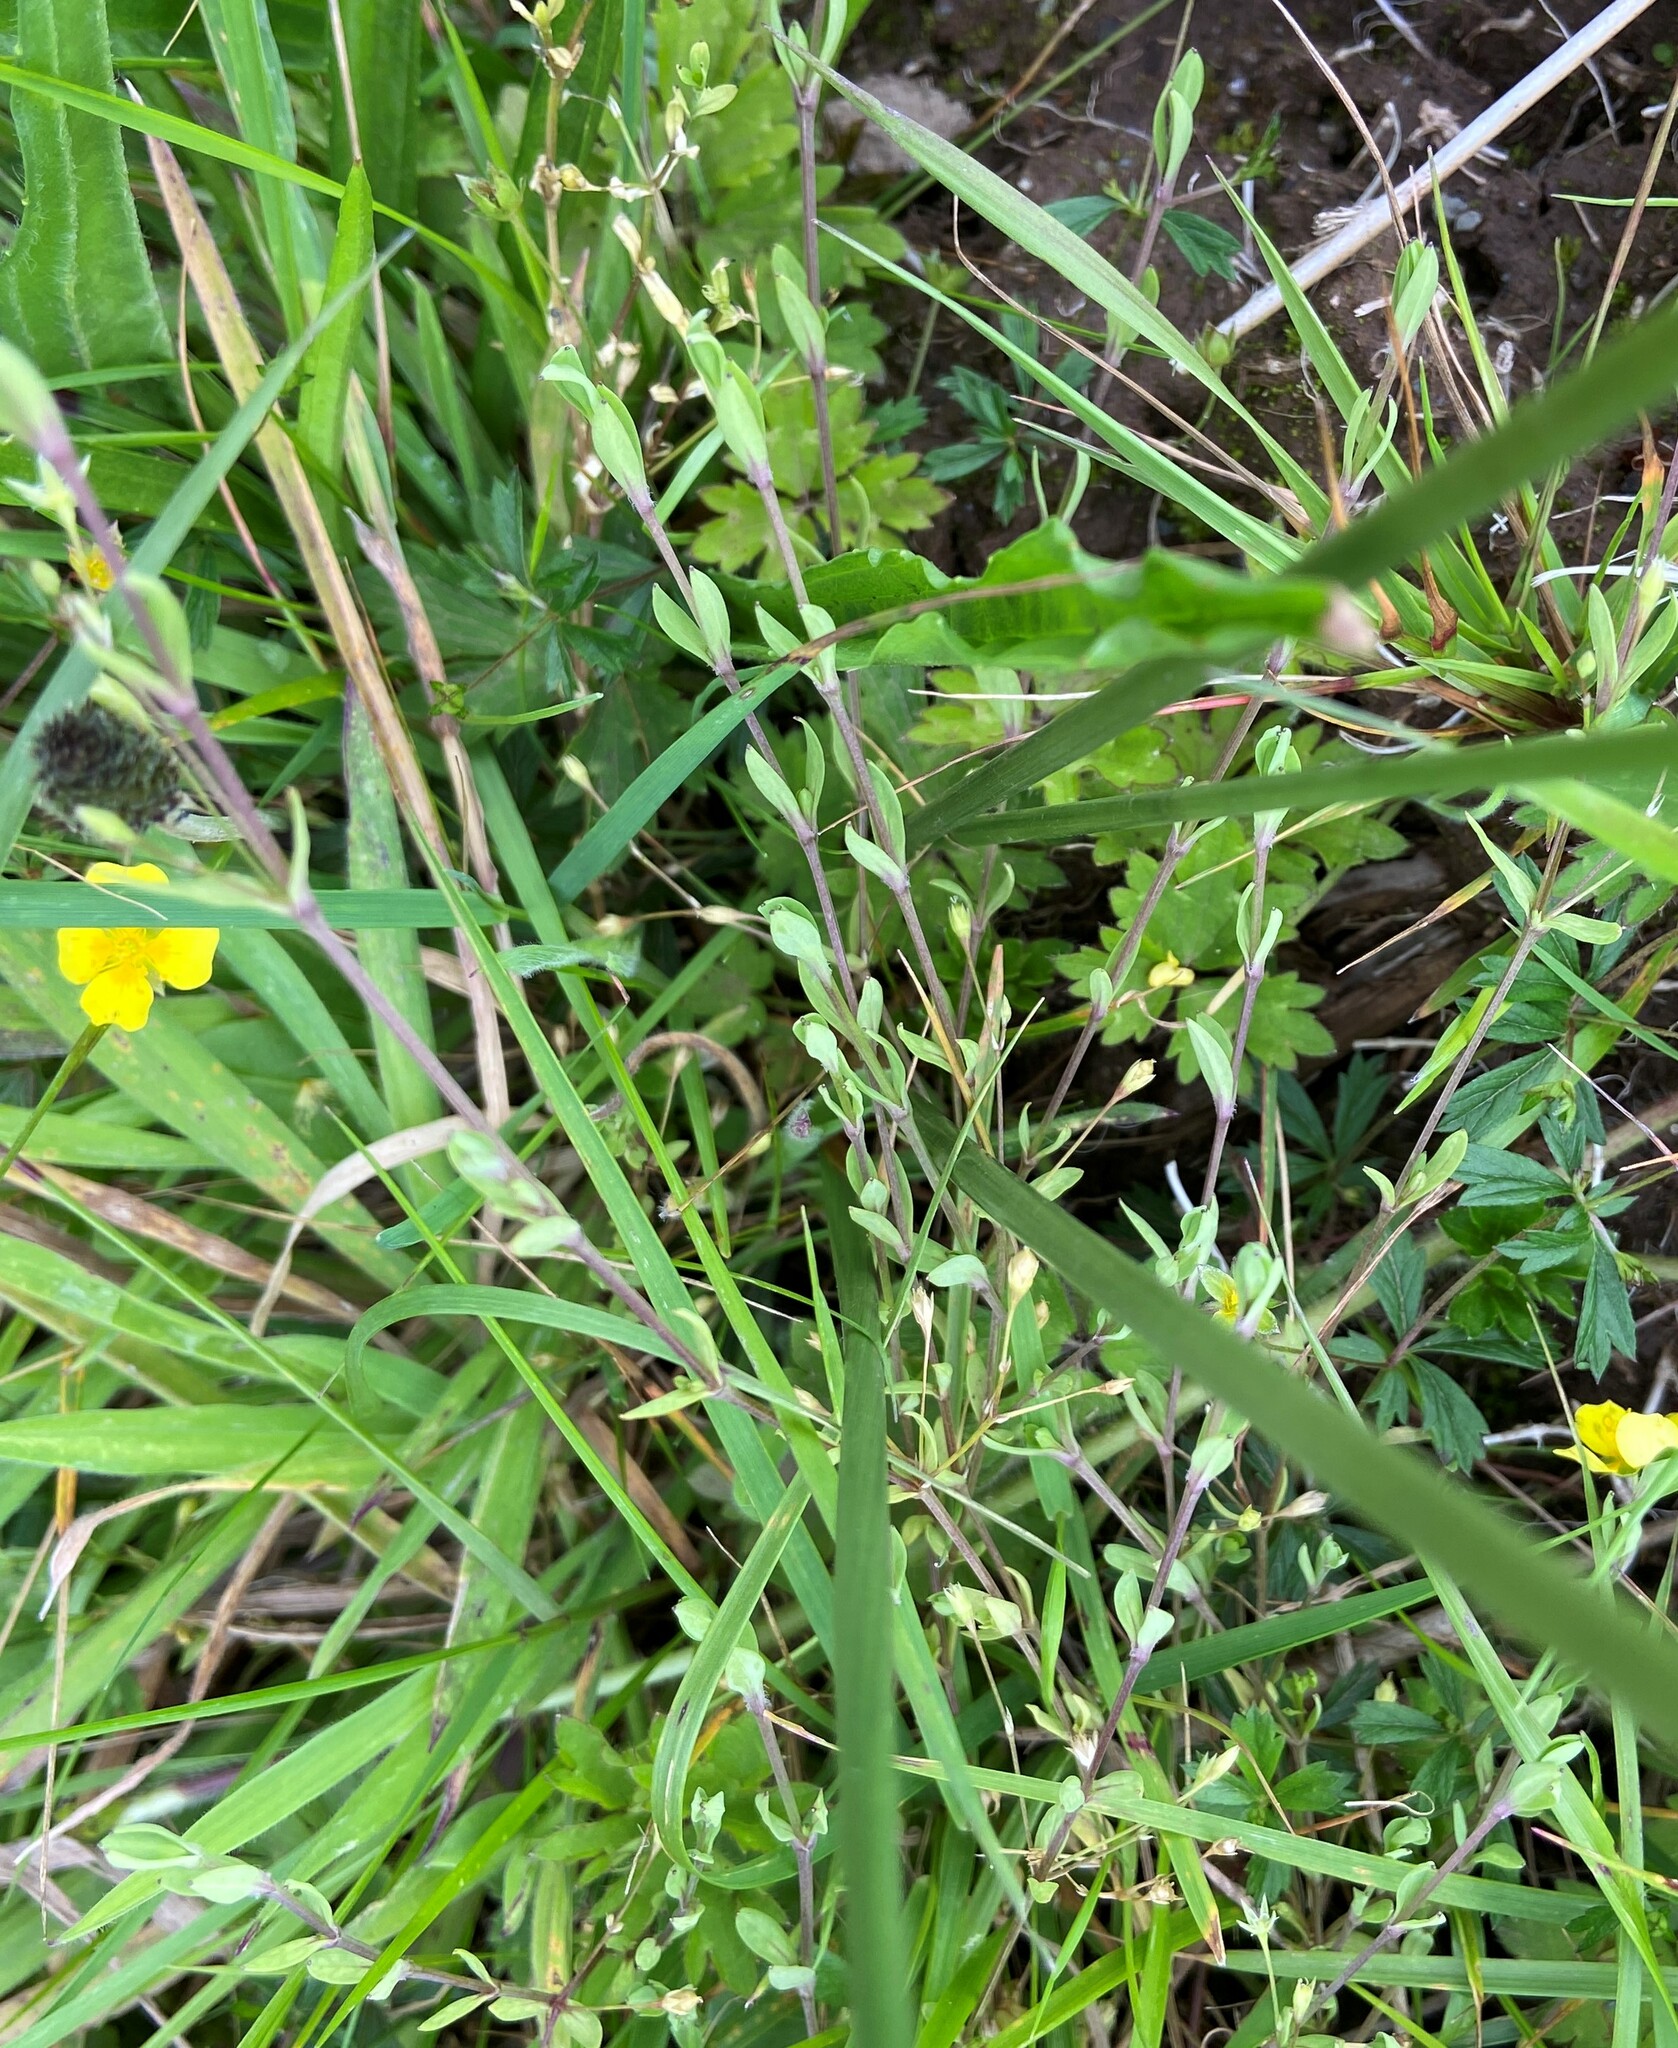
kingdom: Plantae
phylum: Tracheophyta
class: Magnoliopsida
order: Malpighiales
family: Linaceae
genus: Linum
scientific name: Linum catharticum
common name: Fairy flax
